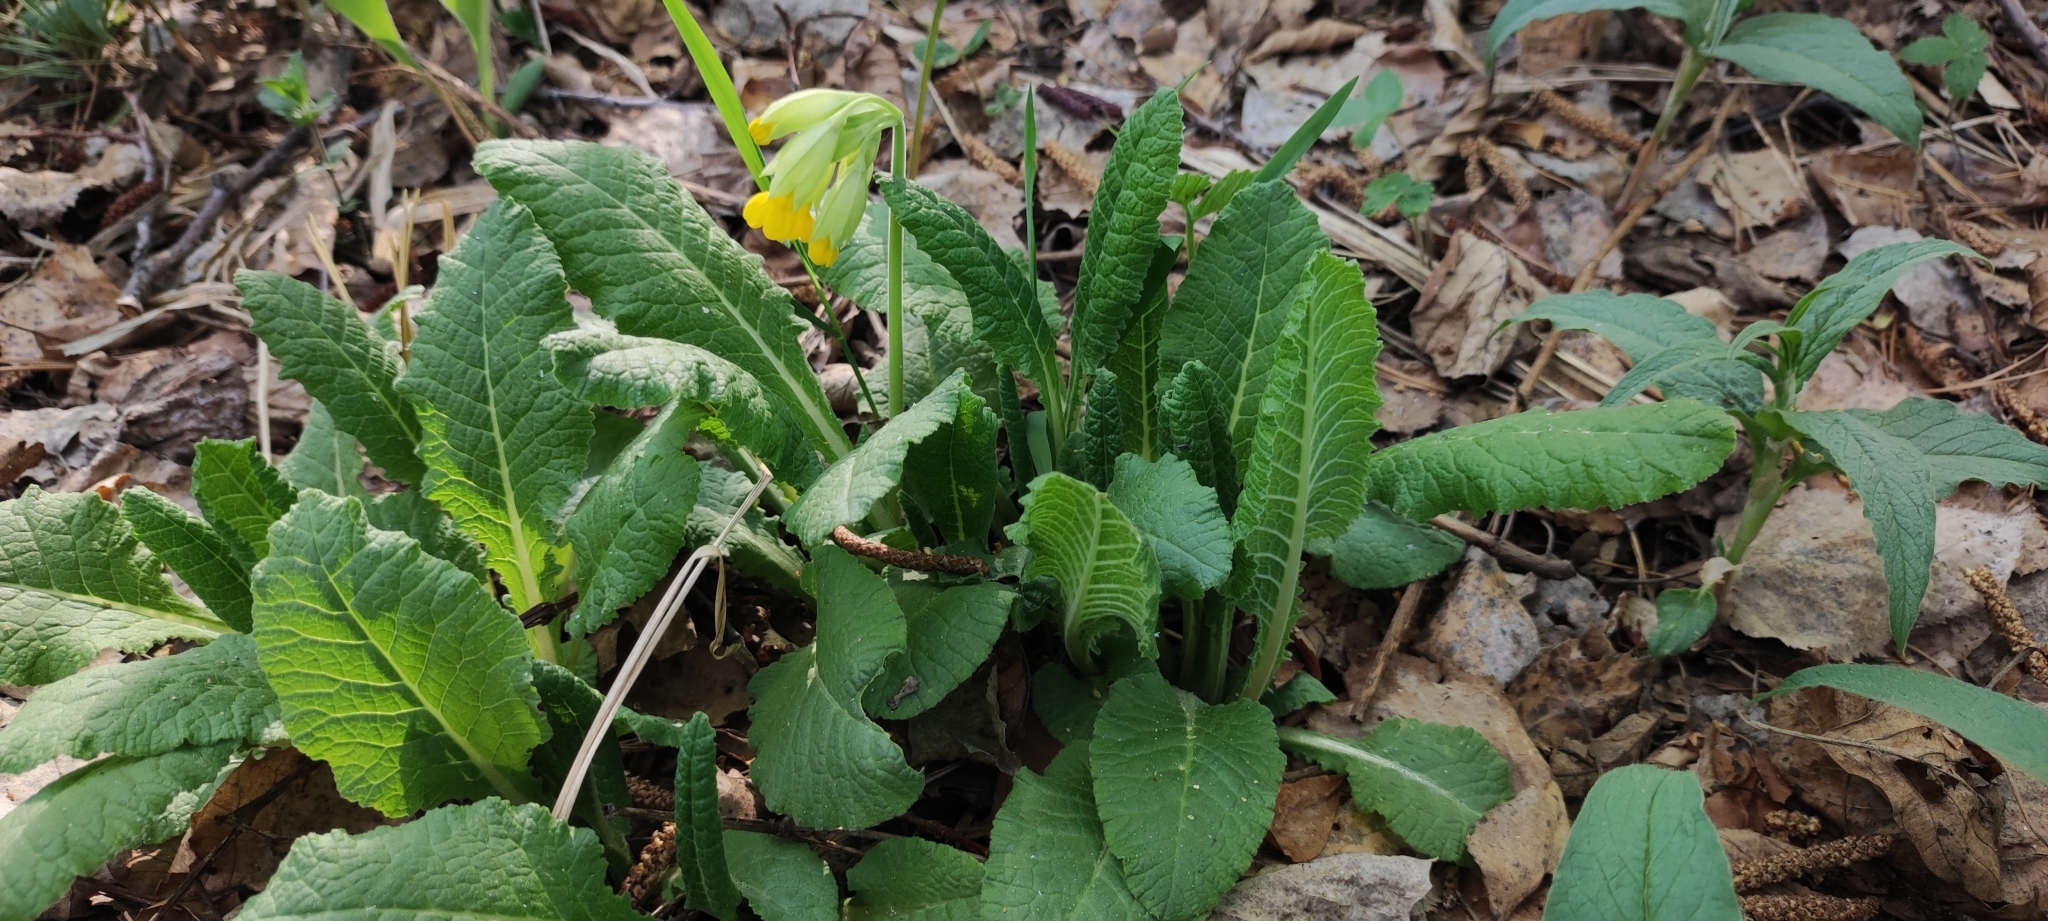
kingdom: Plantae
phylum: Tracheophyta
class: Magnoliopsida
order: Ericales
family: Primulaceae
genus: Primula
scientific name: Primula veris
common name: Cowslip
